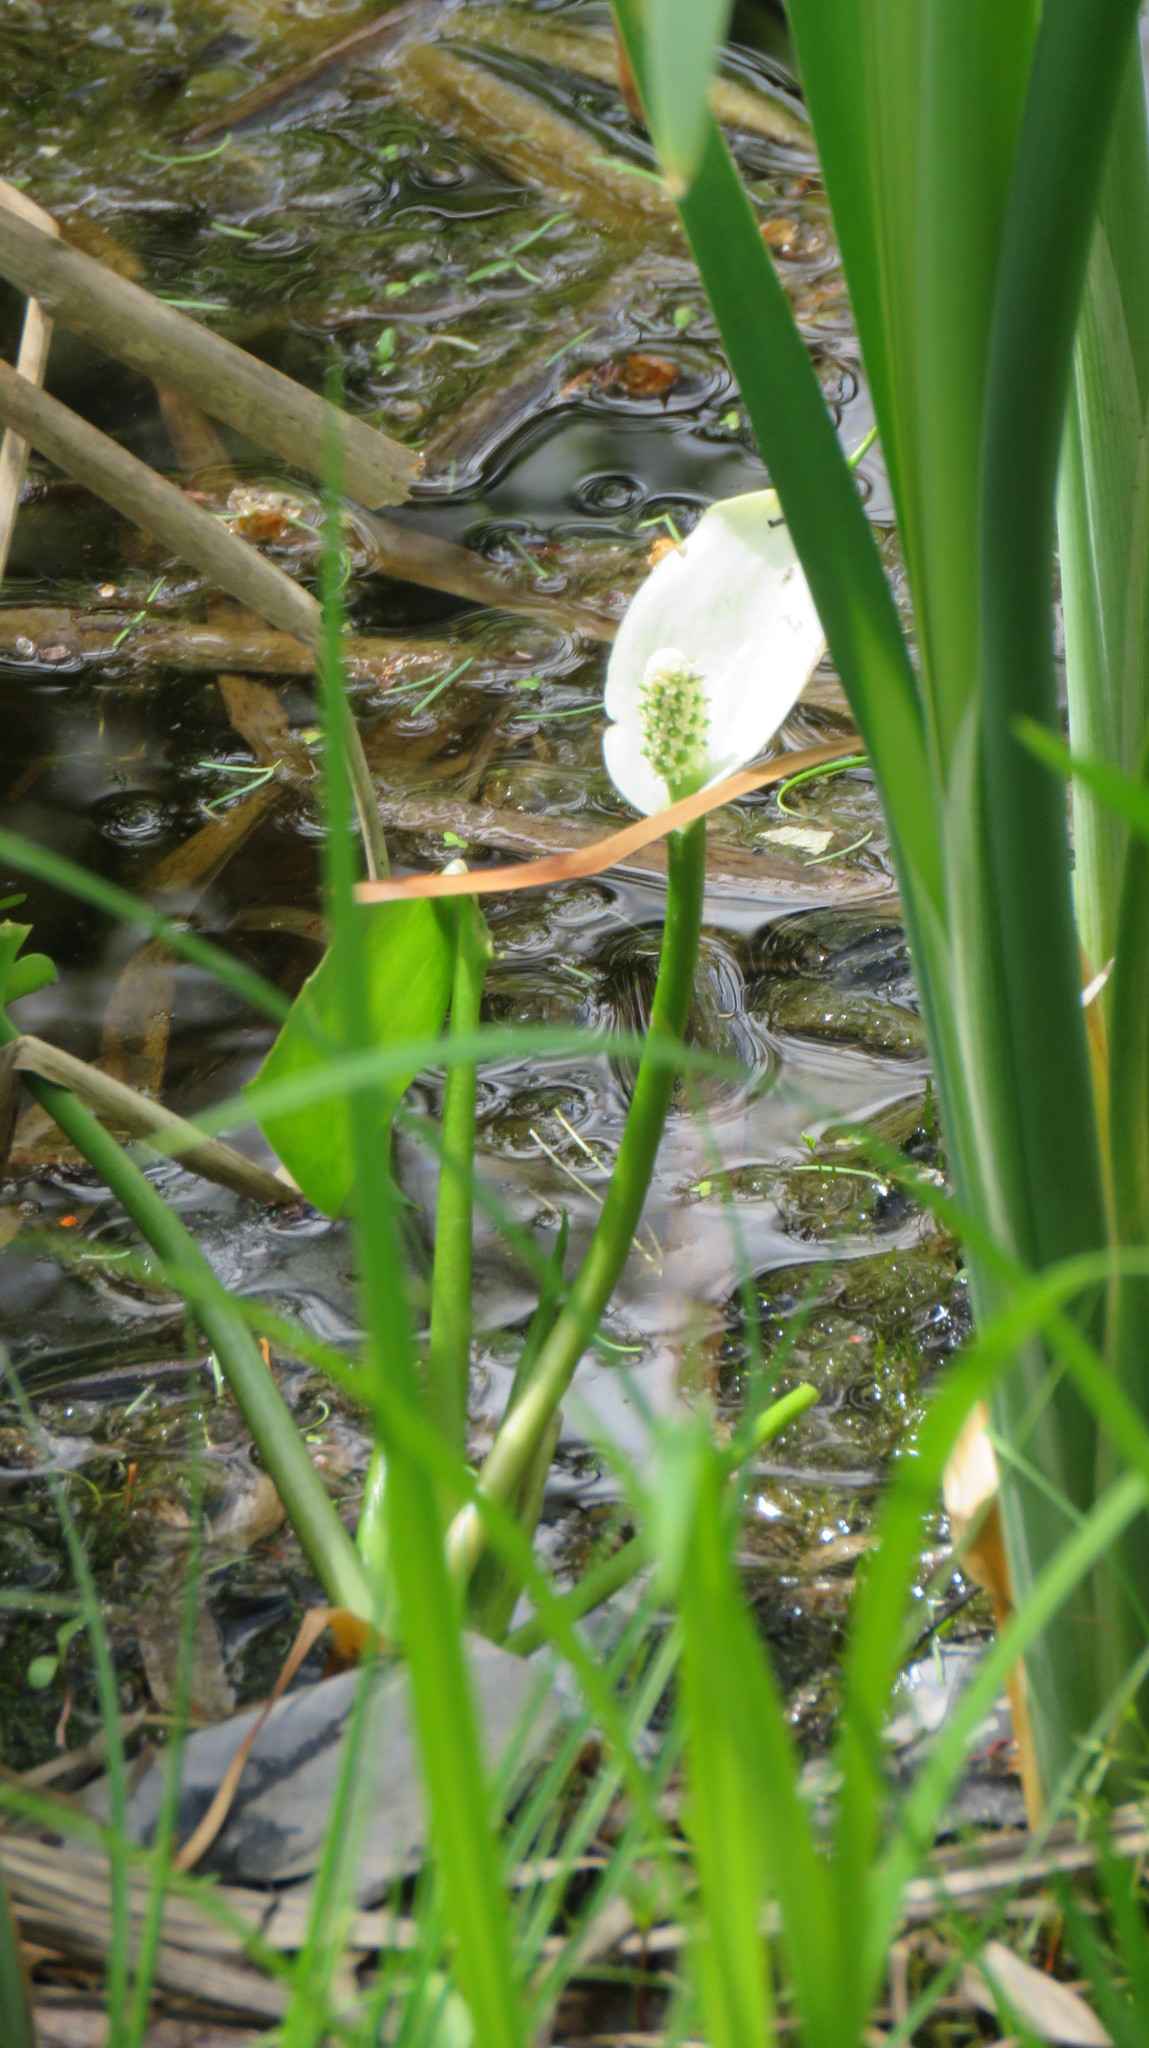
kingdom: Plantae
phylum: Tracheophyta
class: Liliopsida
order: Alismatales
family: Araceae
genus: Calla
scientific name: Calla palustris
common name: Bog arum
